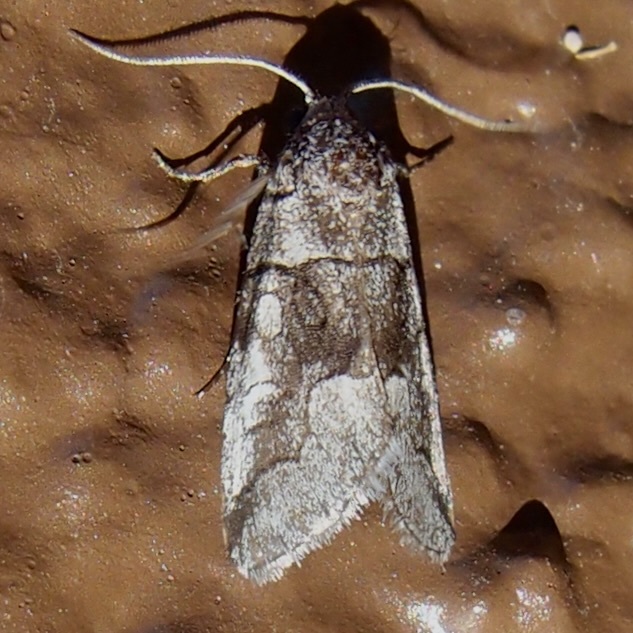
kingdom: Animalia
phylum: Arthropoda
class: Insecta
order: Lepidoptera
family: Noctuidae
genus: Oxycnemis
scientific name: Oxycnemis advena
